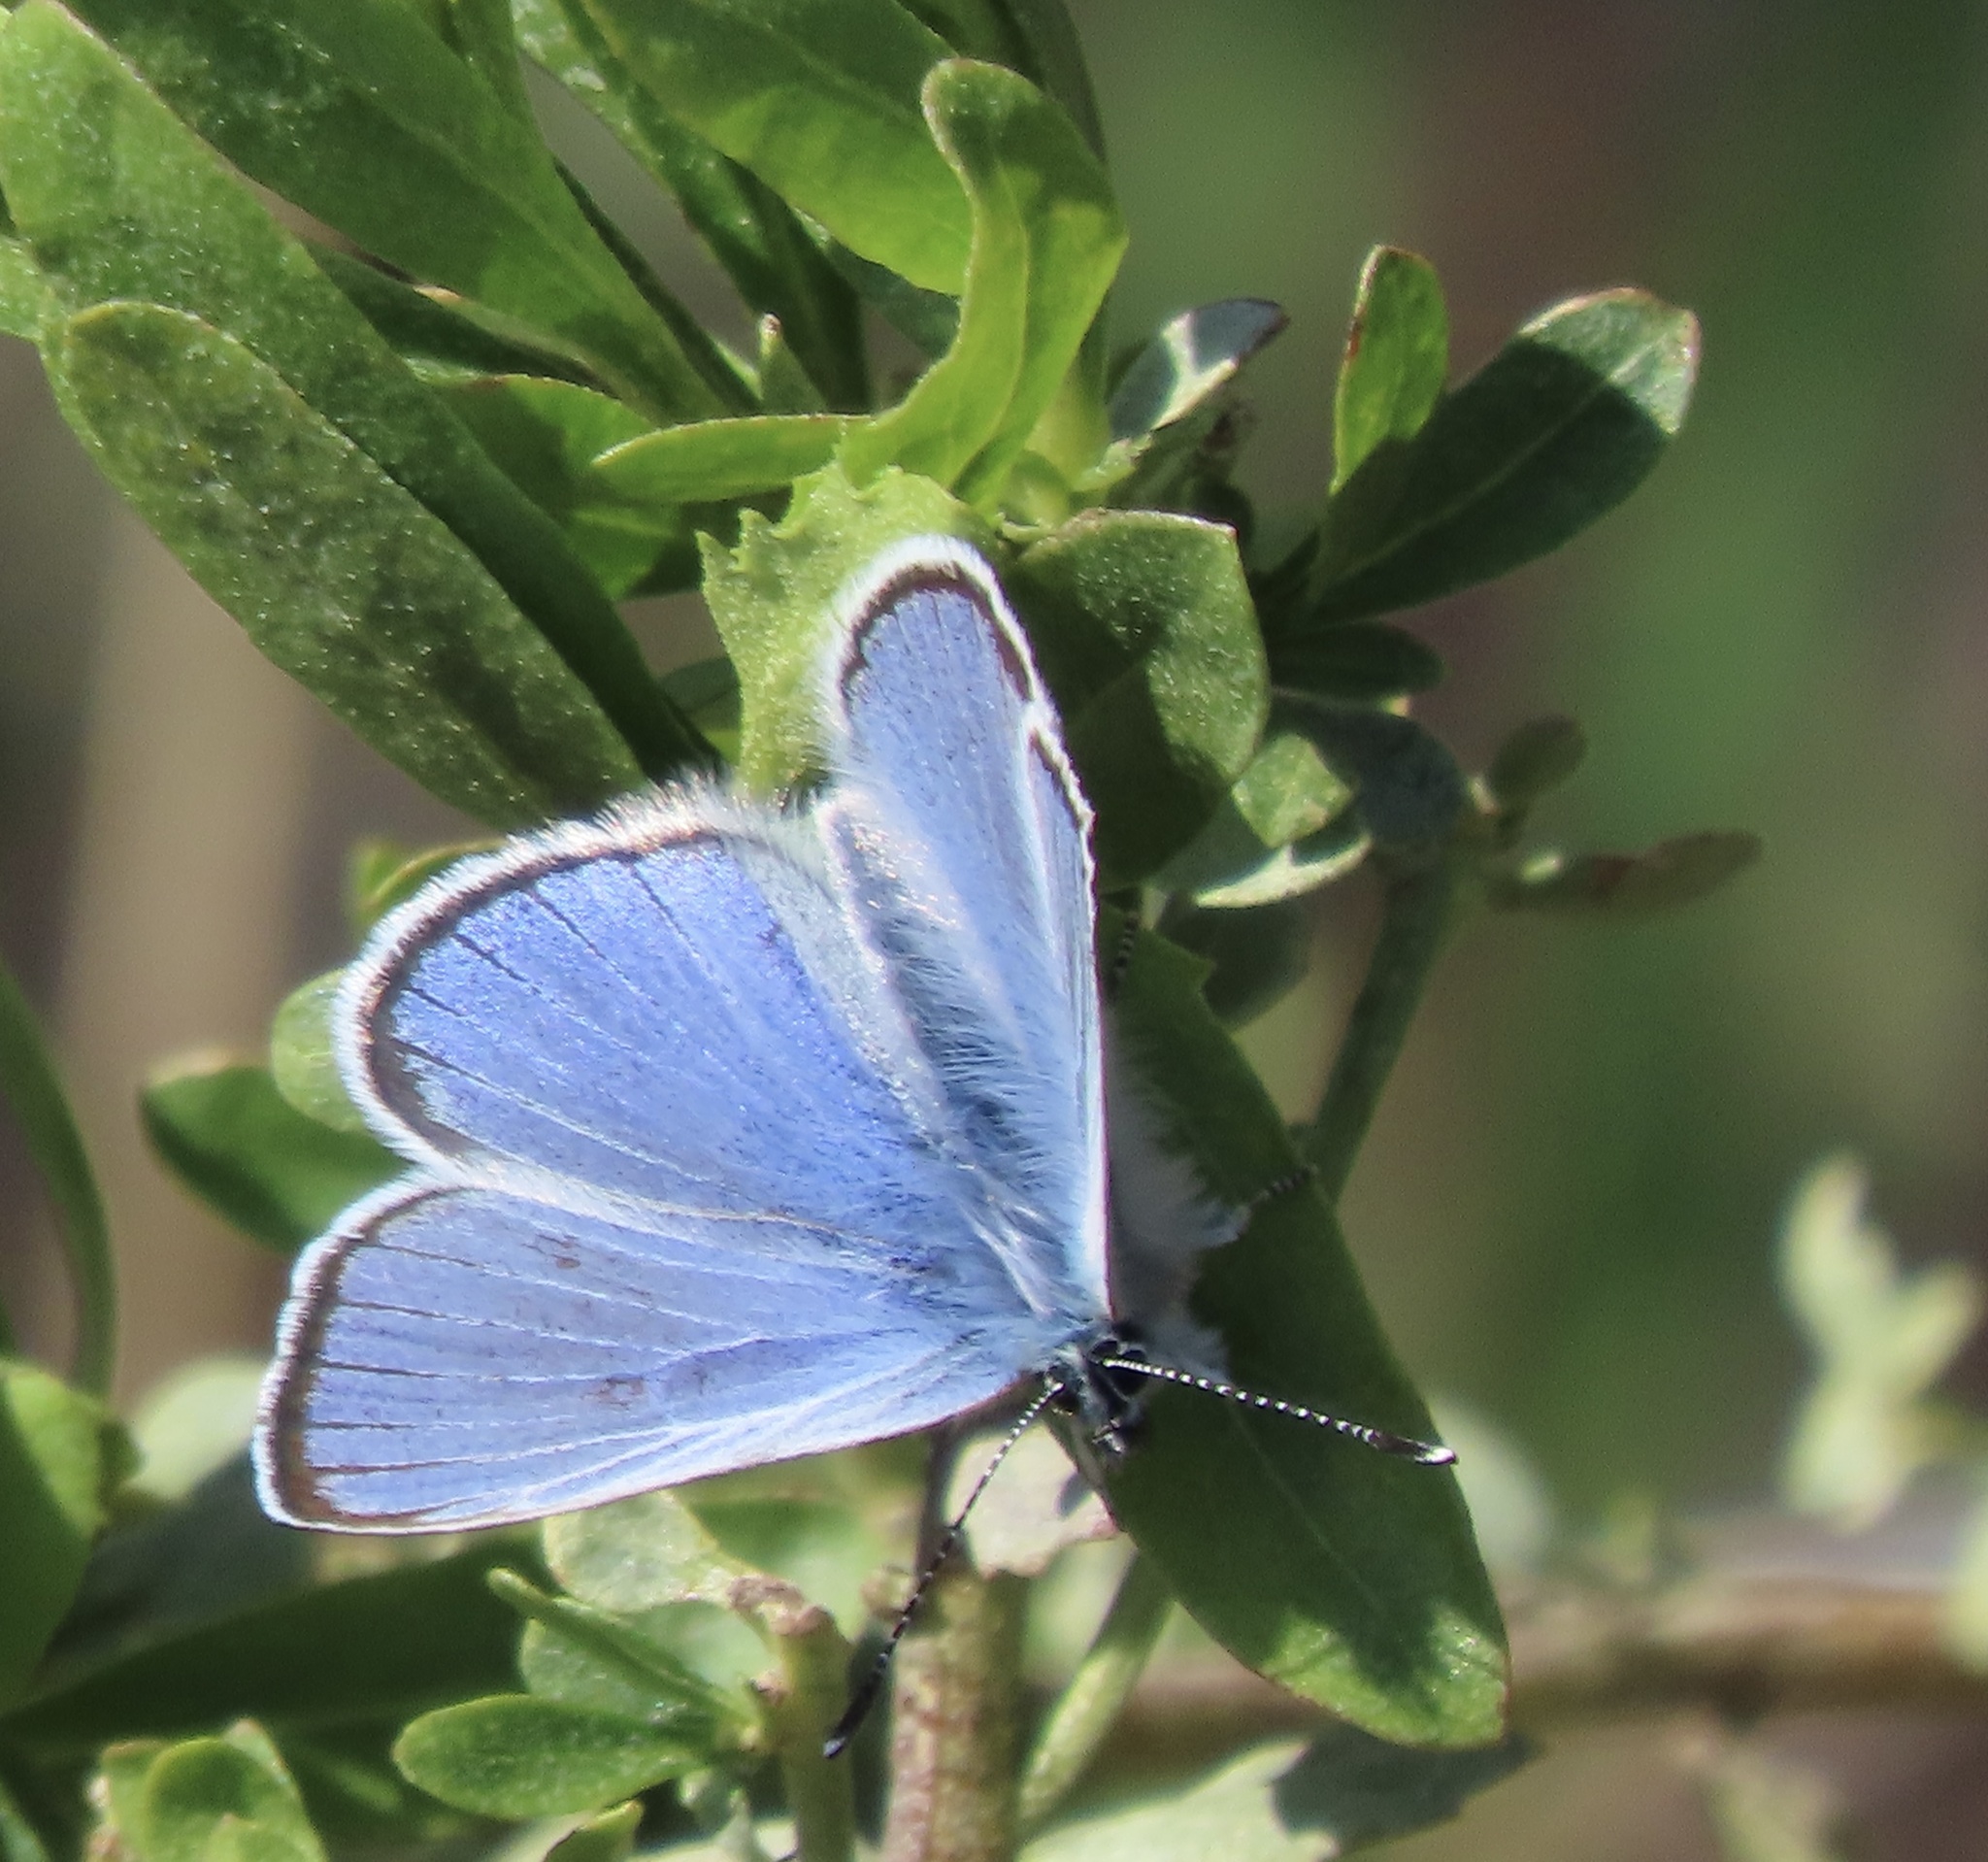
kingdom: Animalia
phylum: Arthropoda
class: Insecta
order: Lepidoptera
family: Lycaenidae
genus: Glaucopsyche
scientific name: Glaucopsyche lygdamus
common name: Silvery blue
